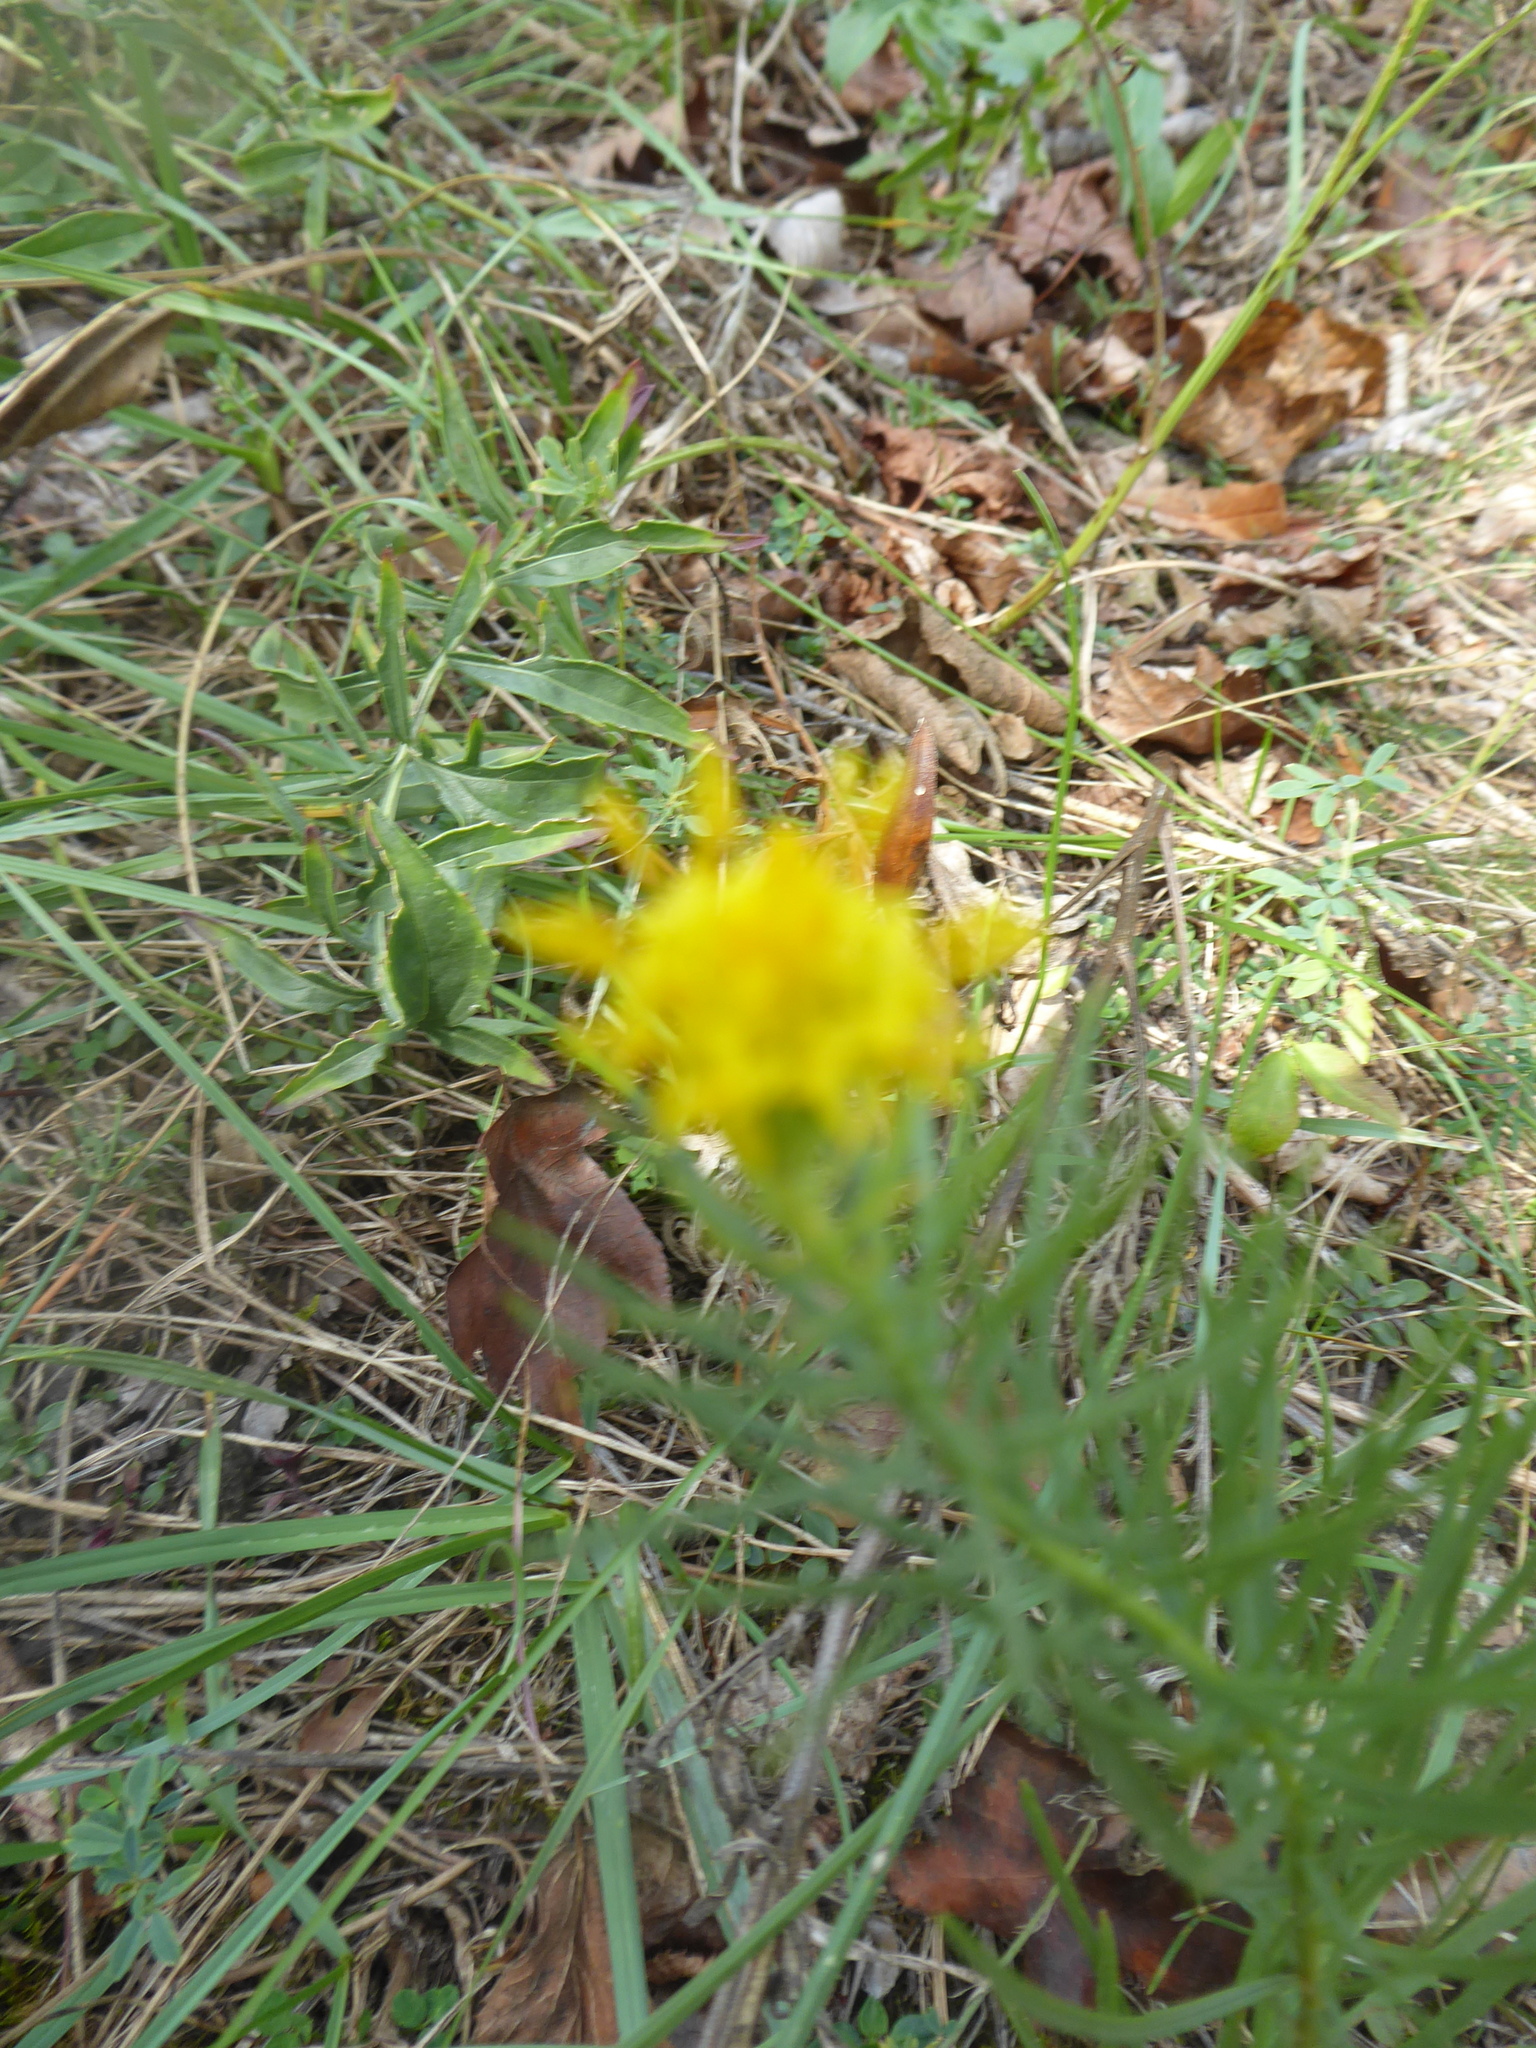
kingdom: Plantae
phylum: Tracheophyta
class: Magnoliopsida
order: Asterales
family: Asteraceae
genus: Galatella
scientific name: Galatella linosyris
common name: Goldilocks aster
